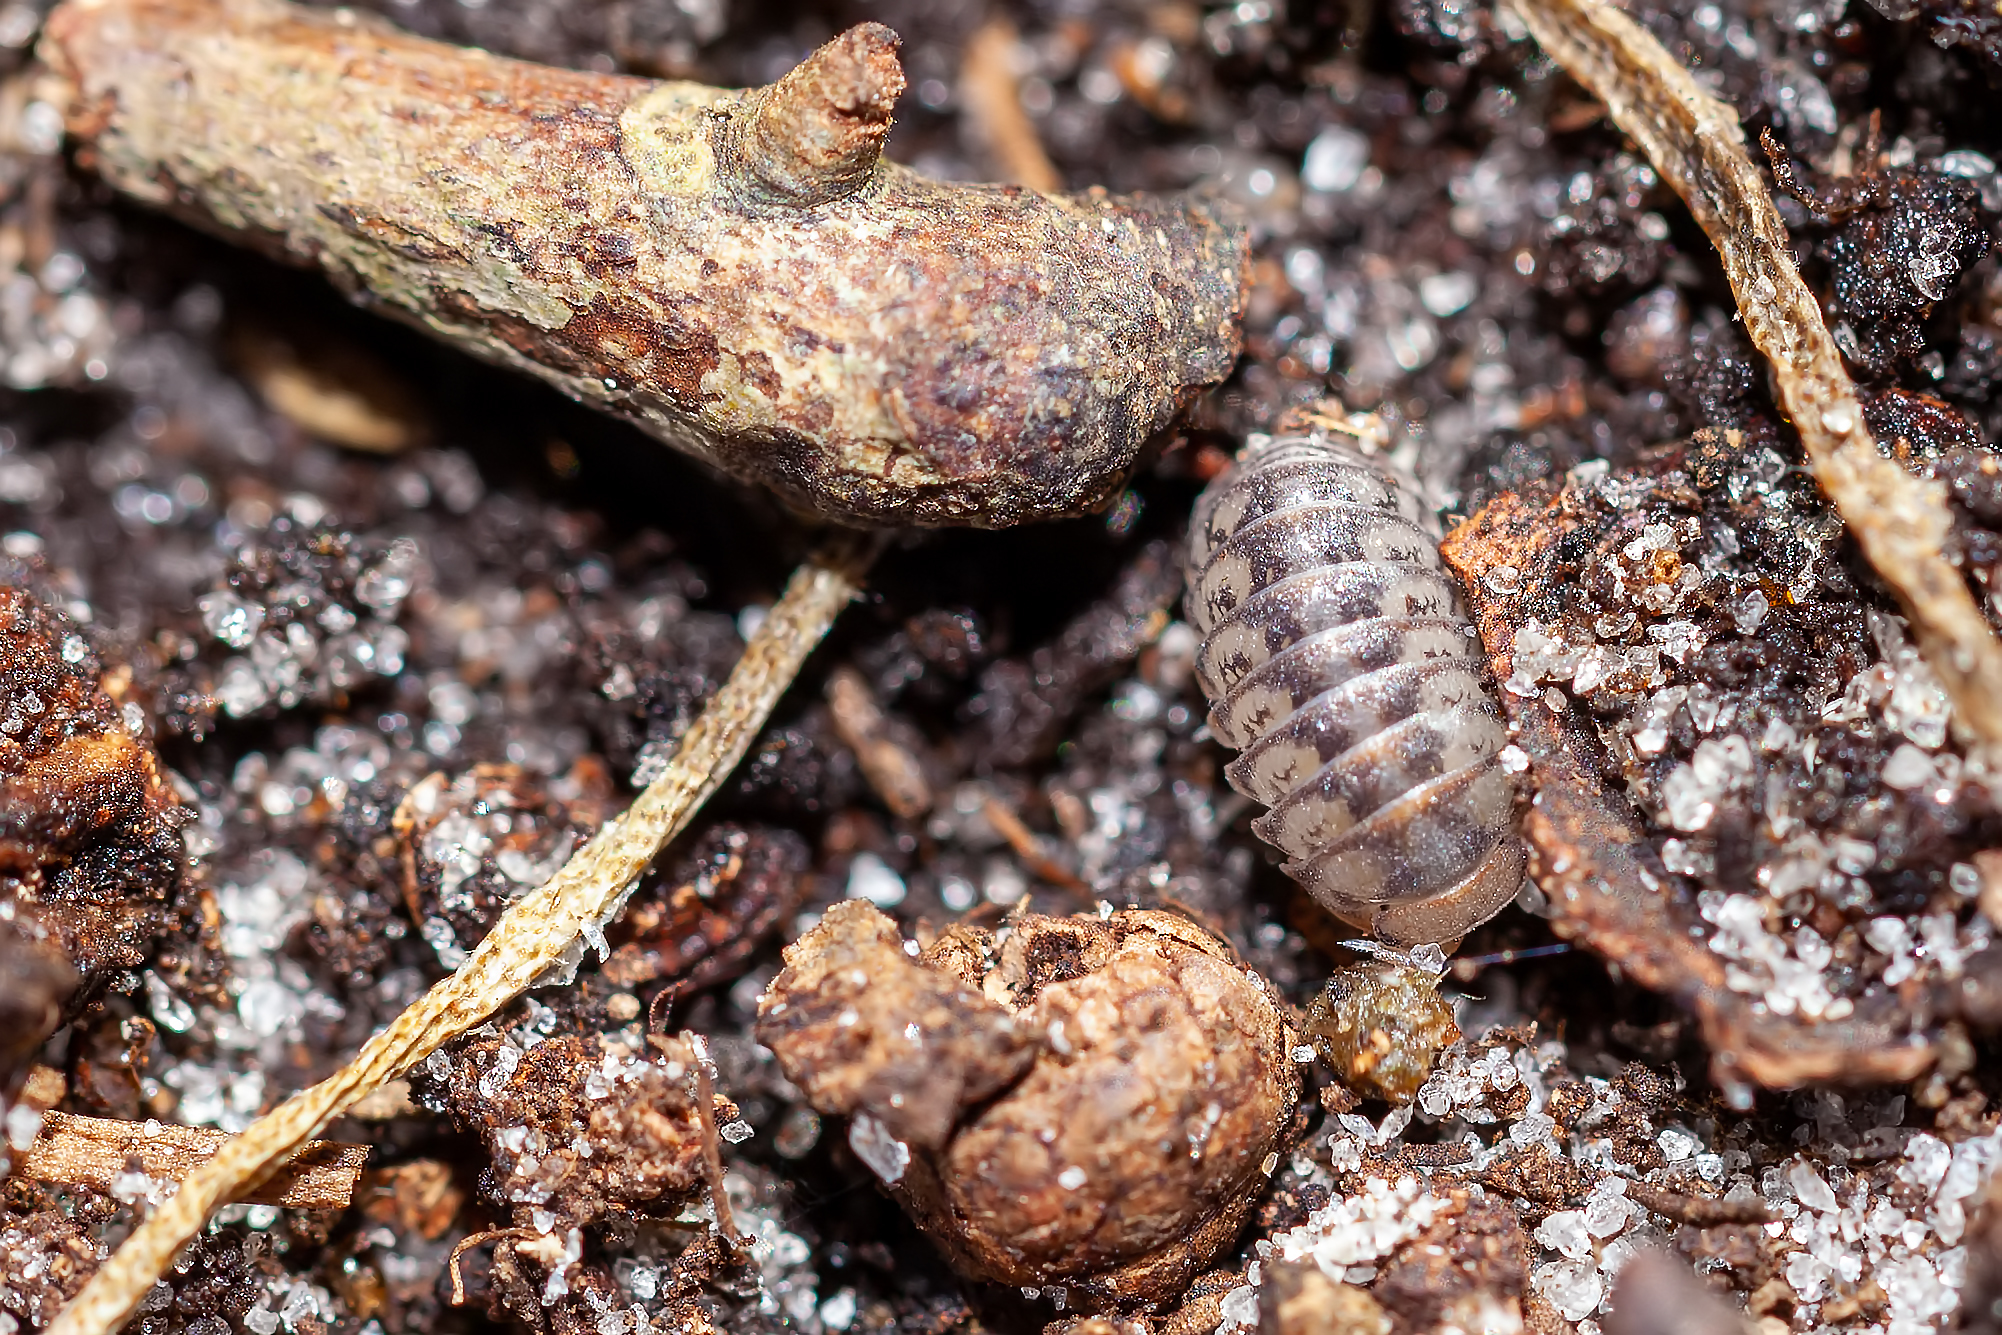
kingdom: Animalia
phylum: Arthropoda
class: Malacostraca
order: Isopoda
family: Armadillidae
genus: Venezillo
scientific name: Venezillo parvus
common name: Pillbug
